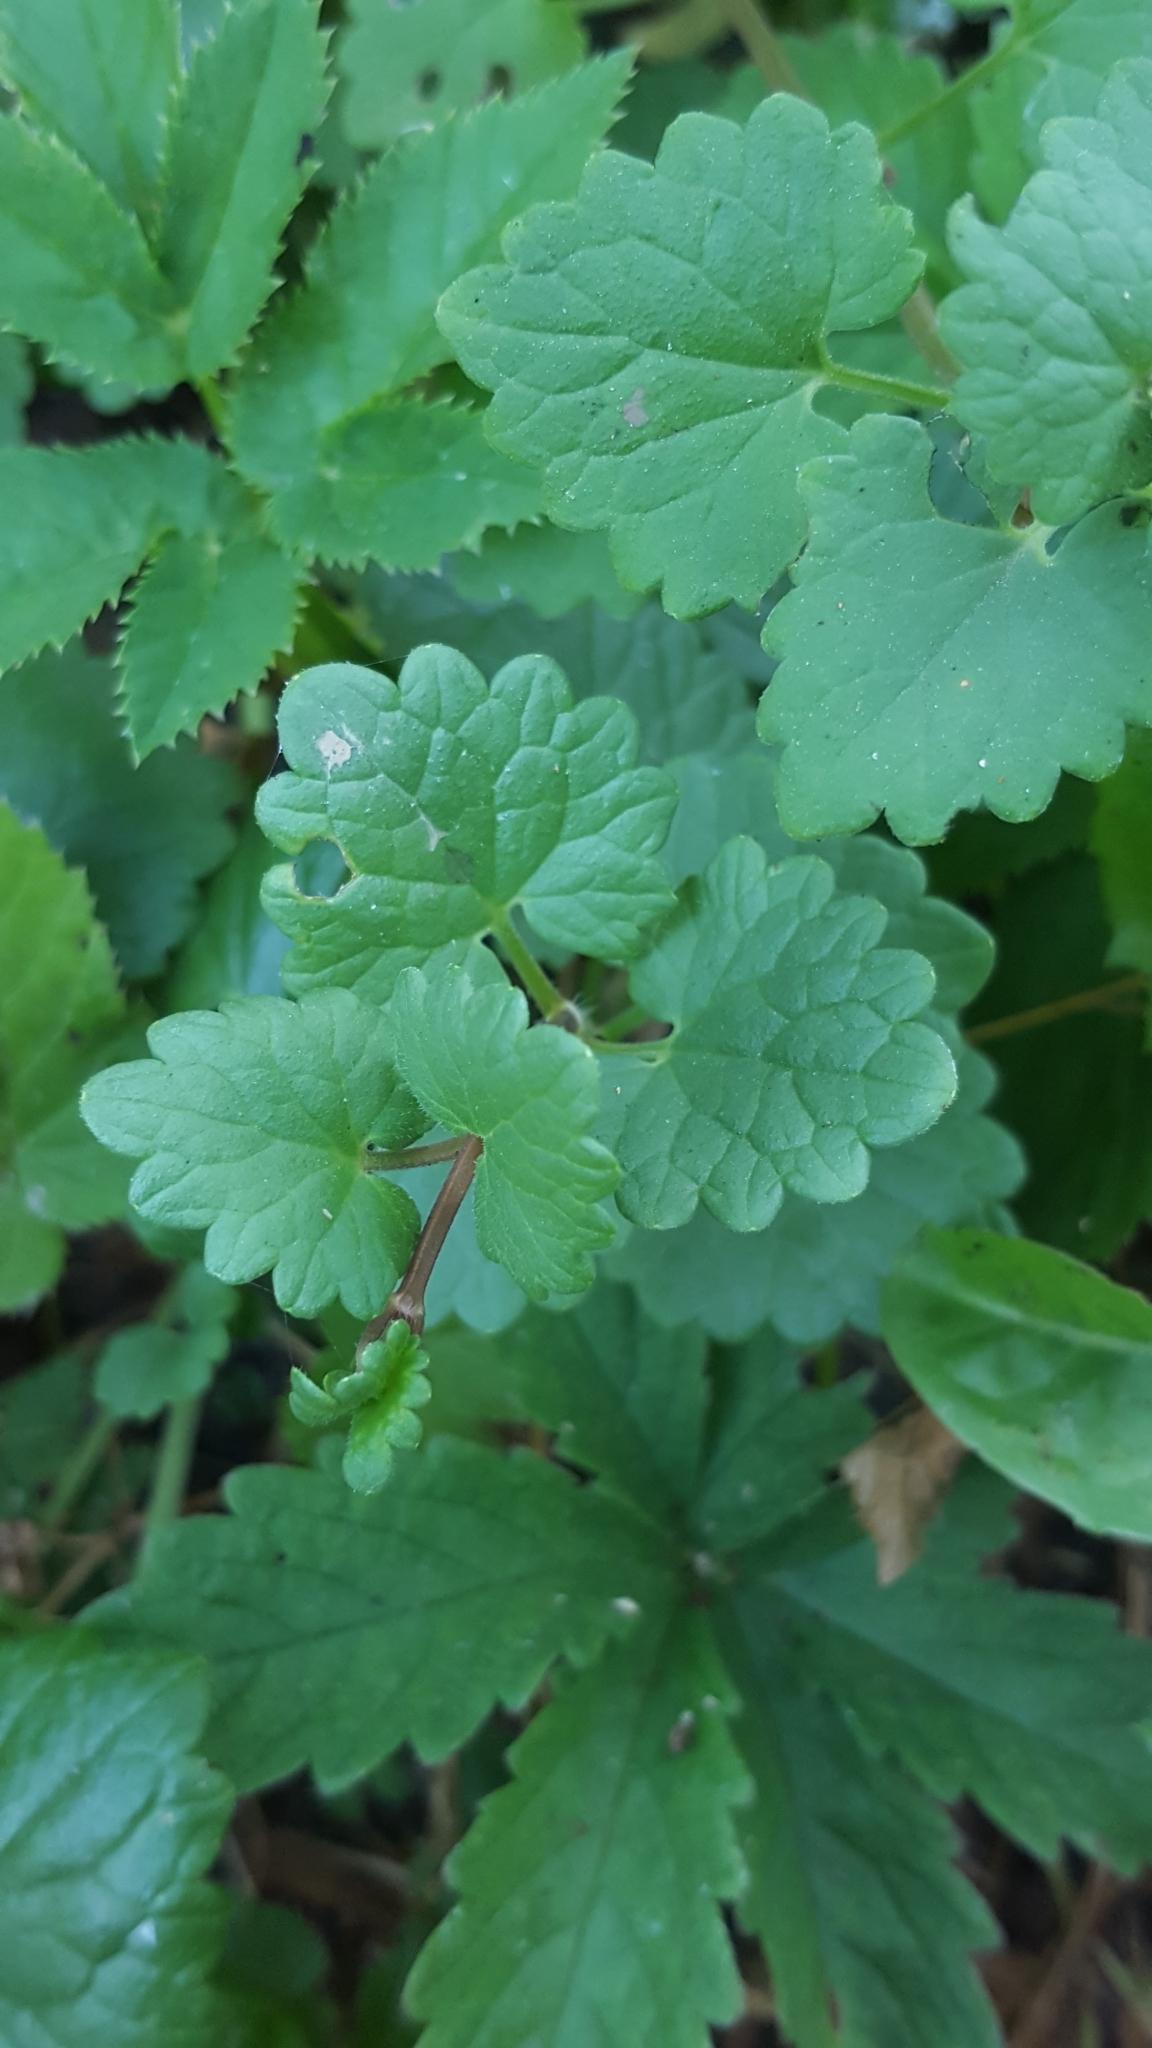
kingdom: Plantae
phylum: Tracheophyta
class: Magnoliopsida
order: Lamiales
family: Lamiaceae
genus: Glechoma
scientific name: Glechoma hederacea
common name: Ground ivy
